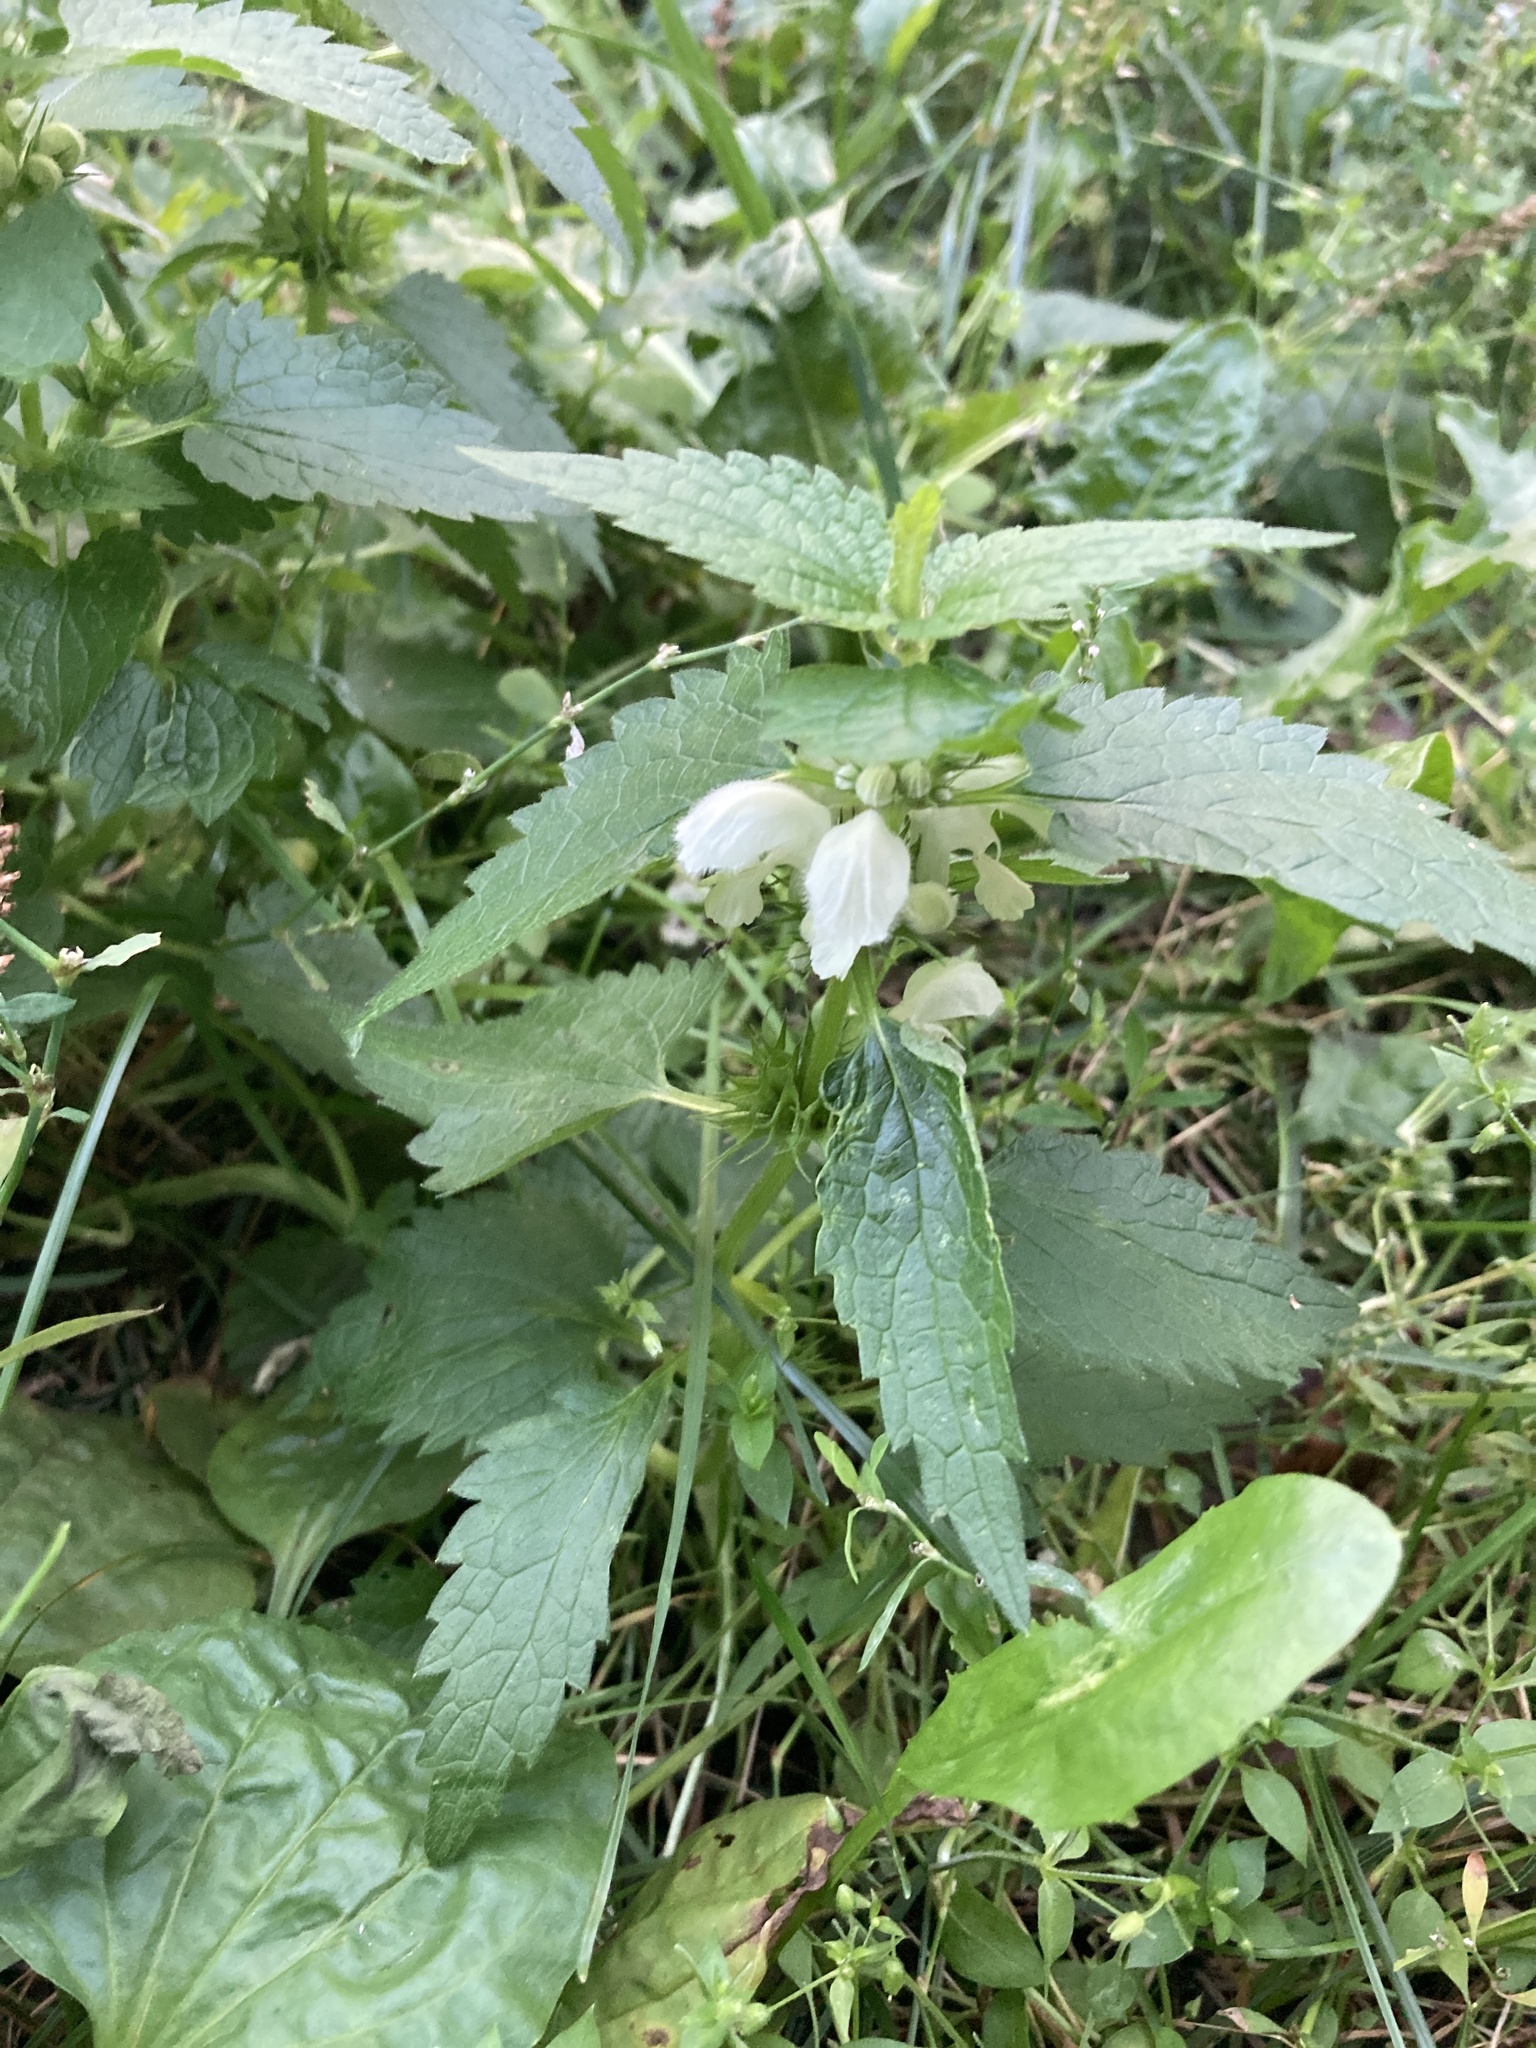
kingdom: Plantae
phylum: Tracheophyta
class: Magnoliopsida
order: Lamiales
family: Lamiaceae
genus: Lamium
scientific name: Lamium album
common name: White dead-nettle
